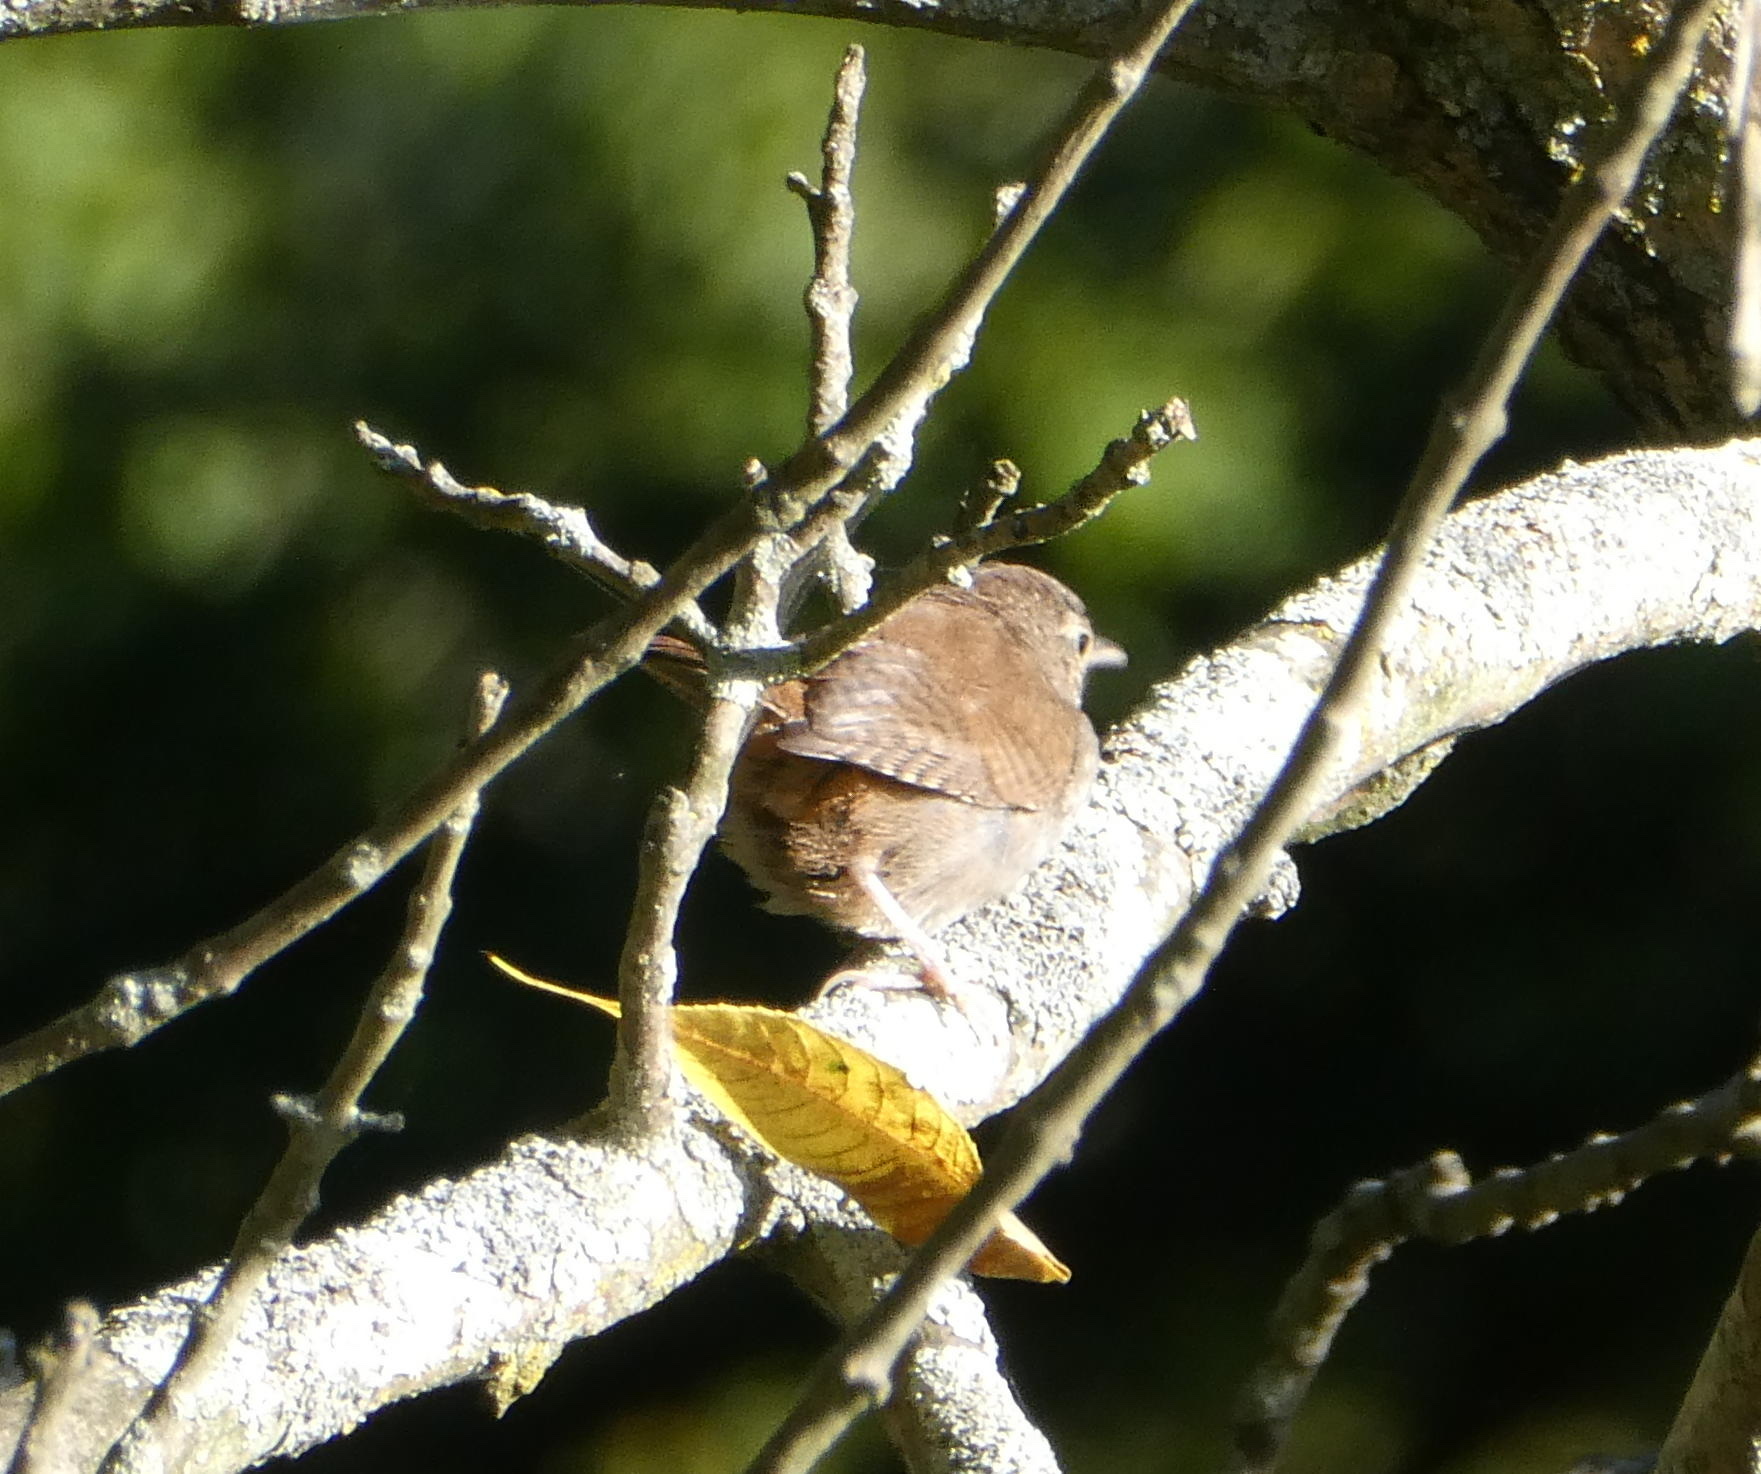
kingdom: Animalia
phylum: Chordata
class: Aves
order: Passeriformes
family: Troglodytidae
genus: Troglodytes
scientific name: Troglodytes aedon
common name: House wren
